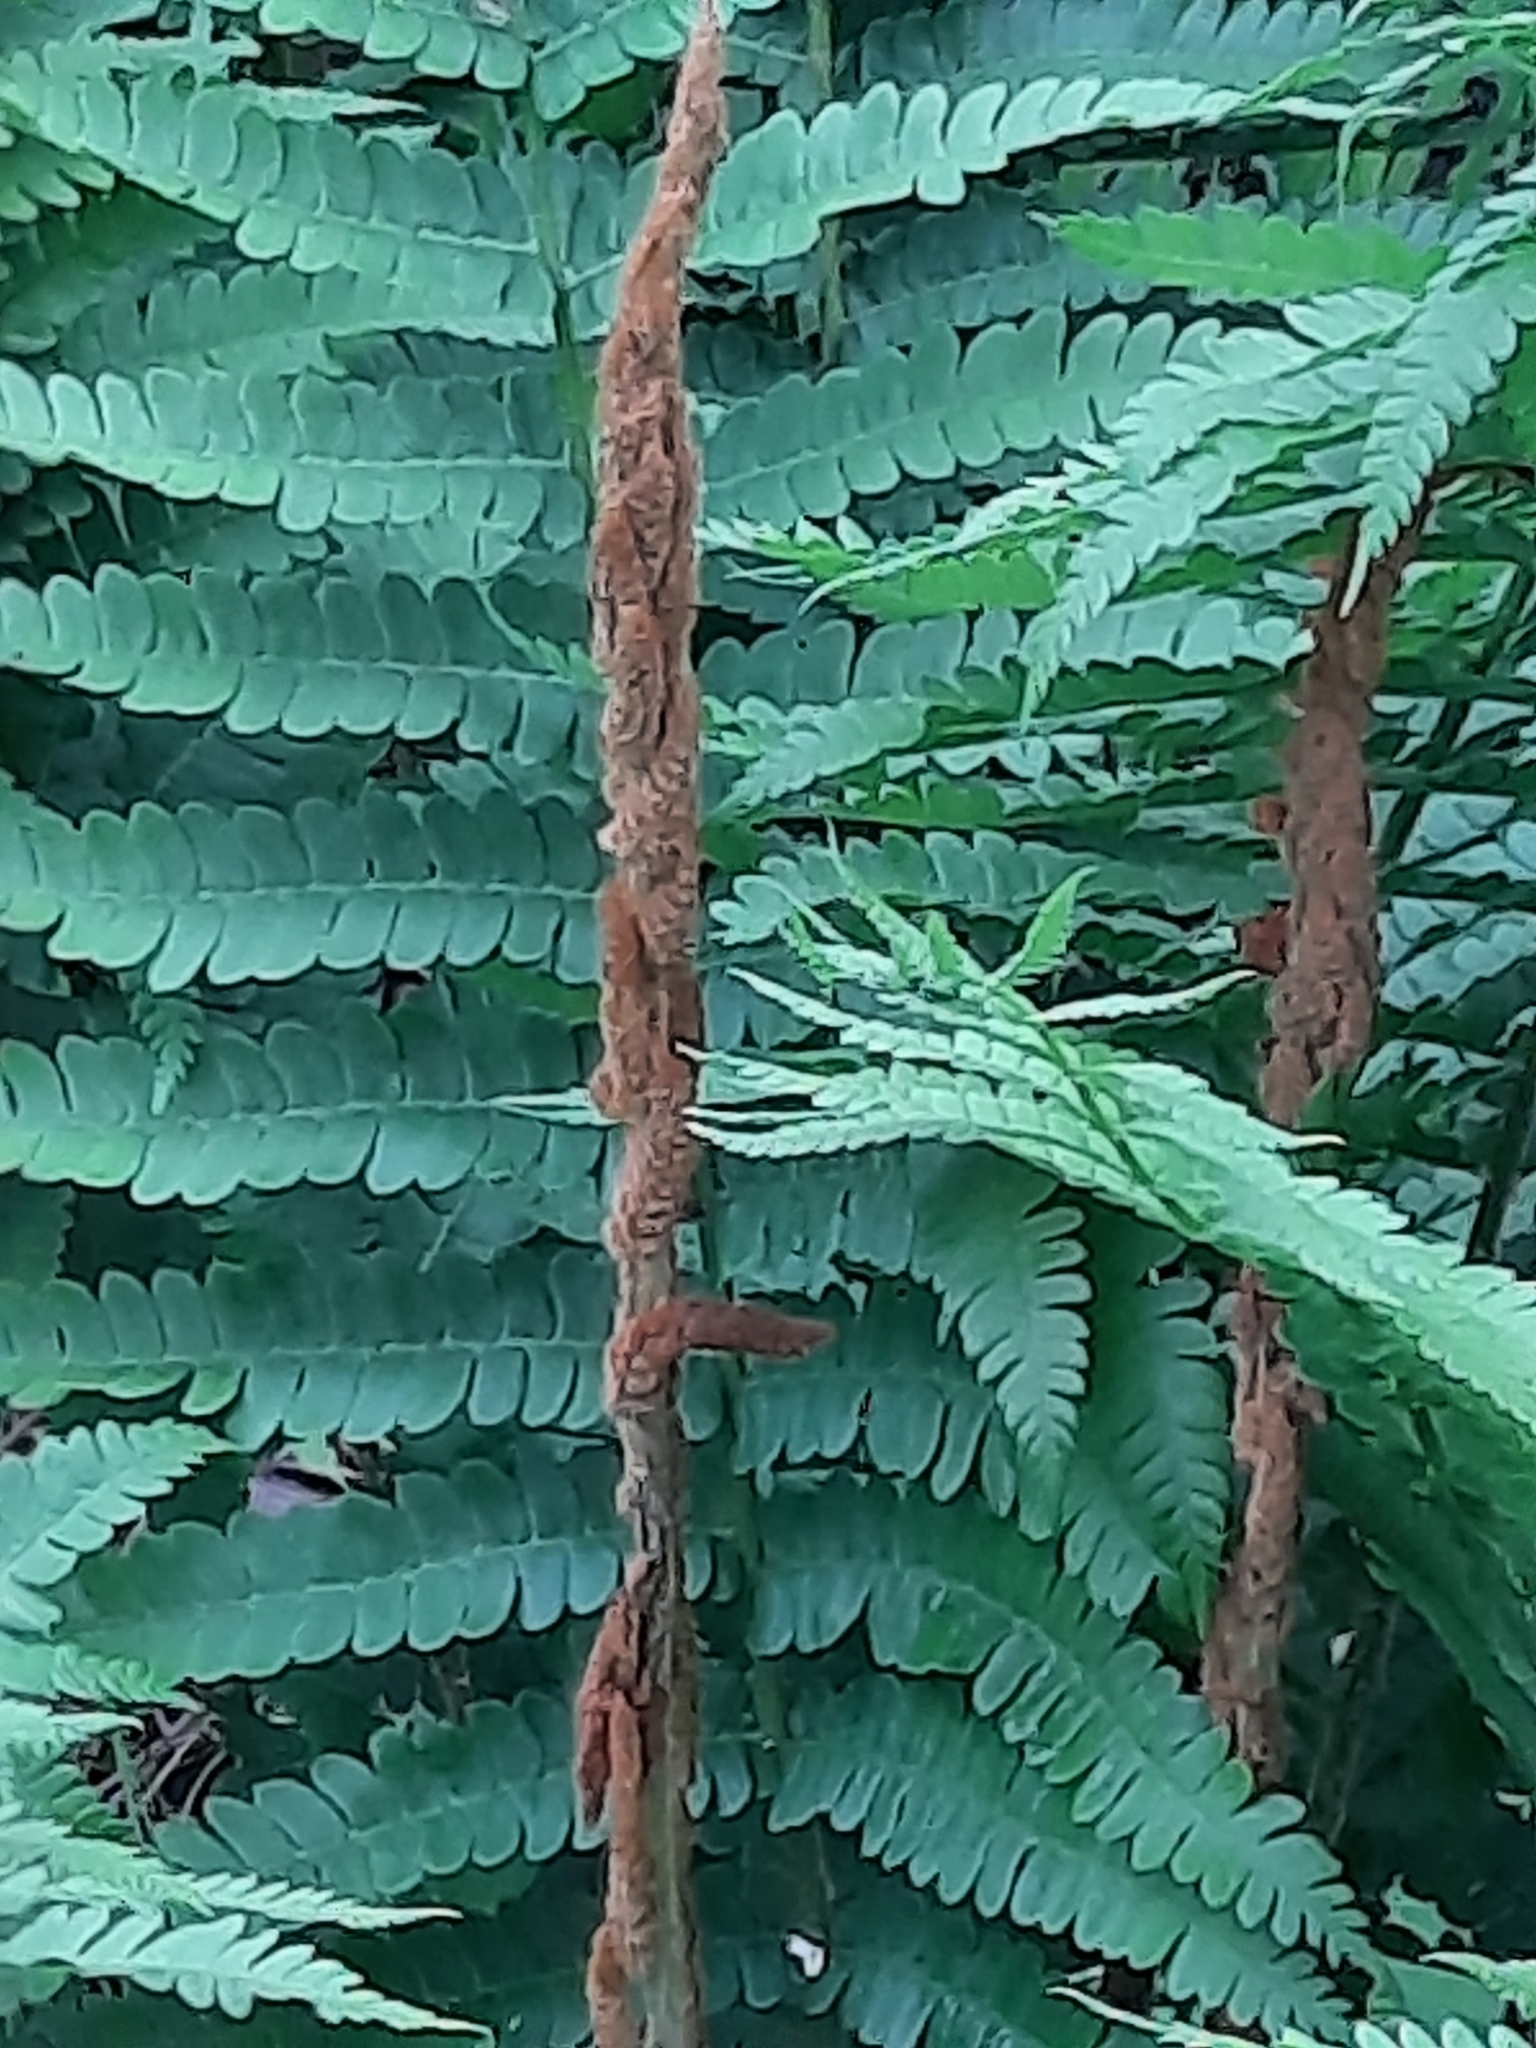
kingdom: Plantae
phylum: Tracheophyta
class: Polypodiopsida
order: Osmundales
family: Osmundaceae
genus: Osmundastrum
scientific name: Osmundastrum cinnamomeum
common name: Cinnamon fern
